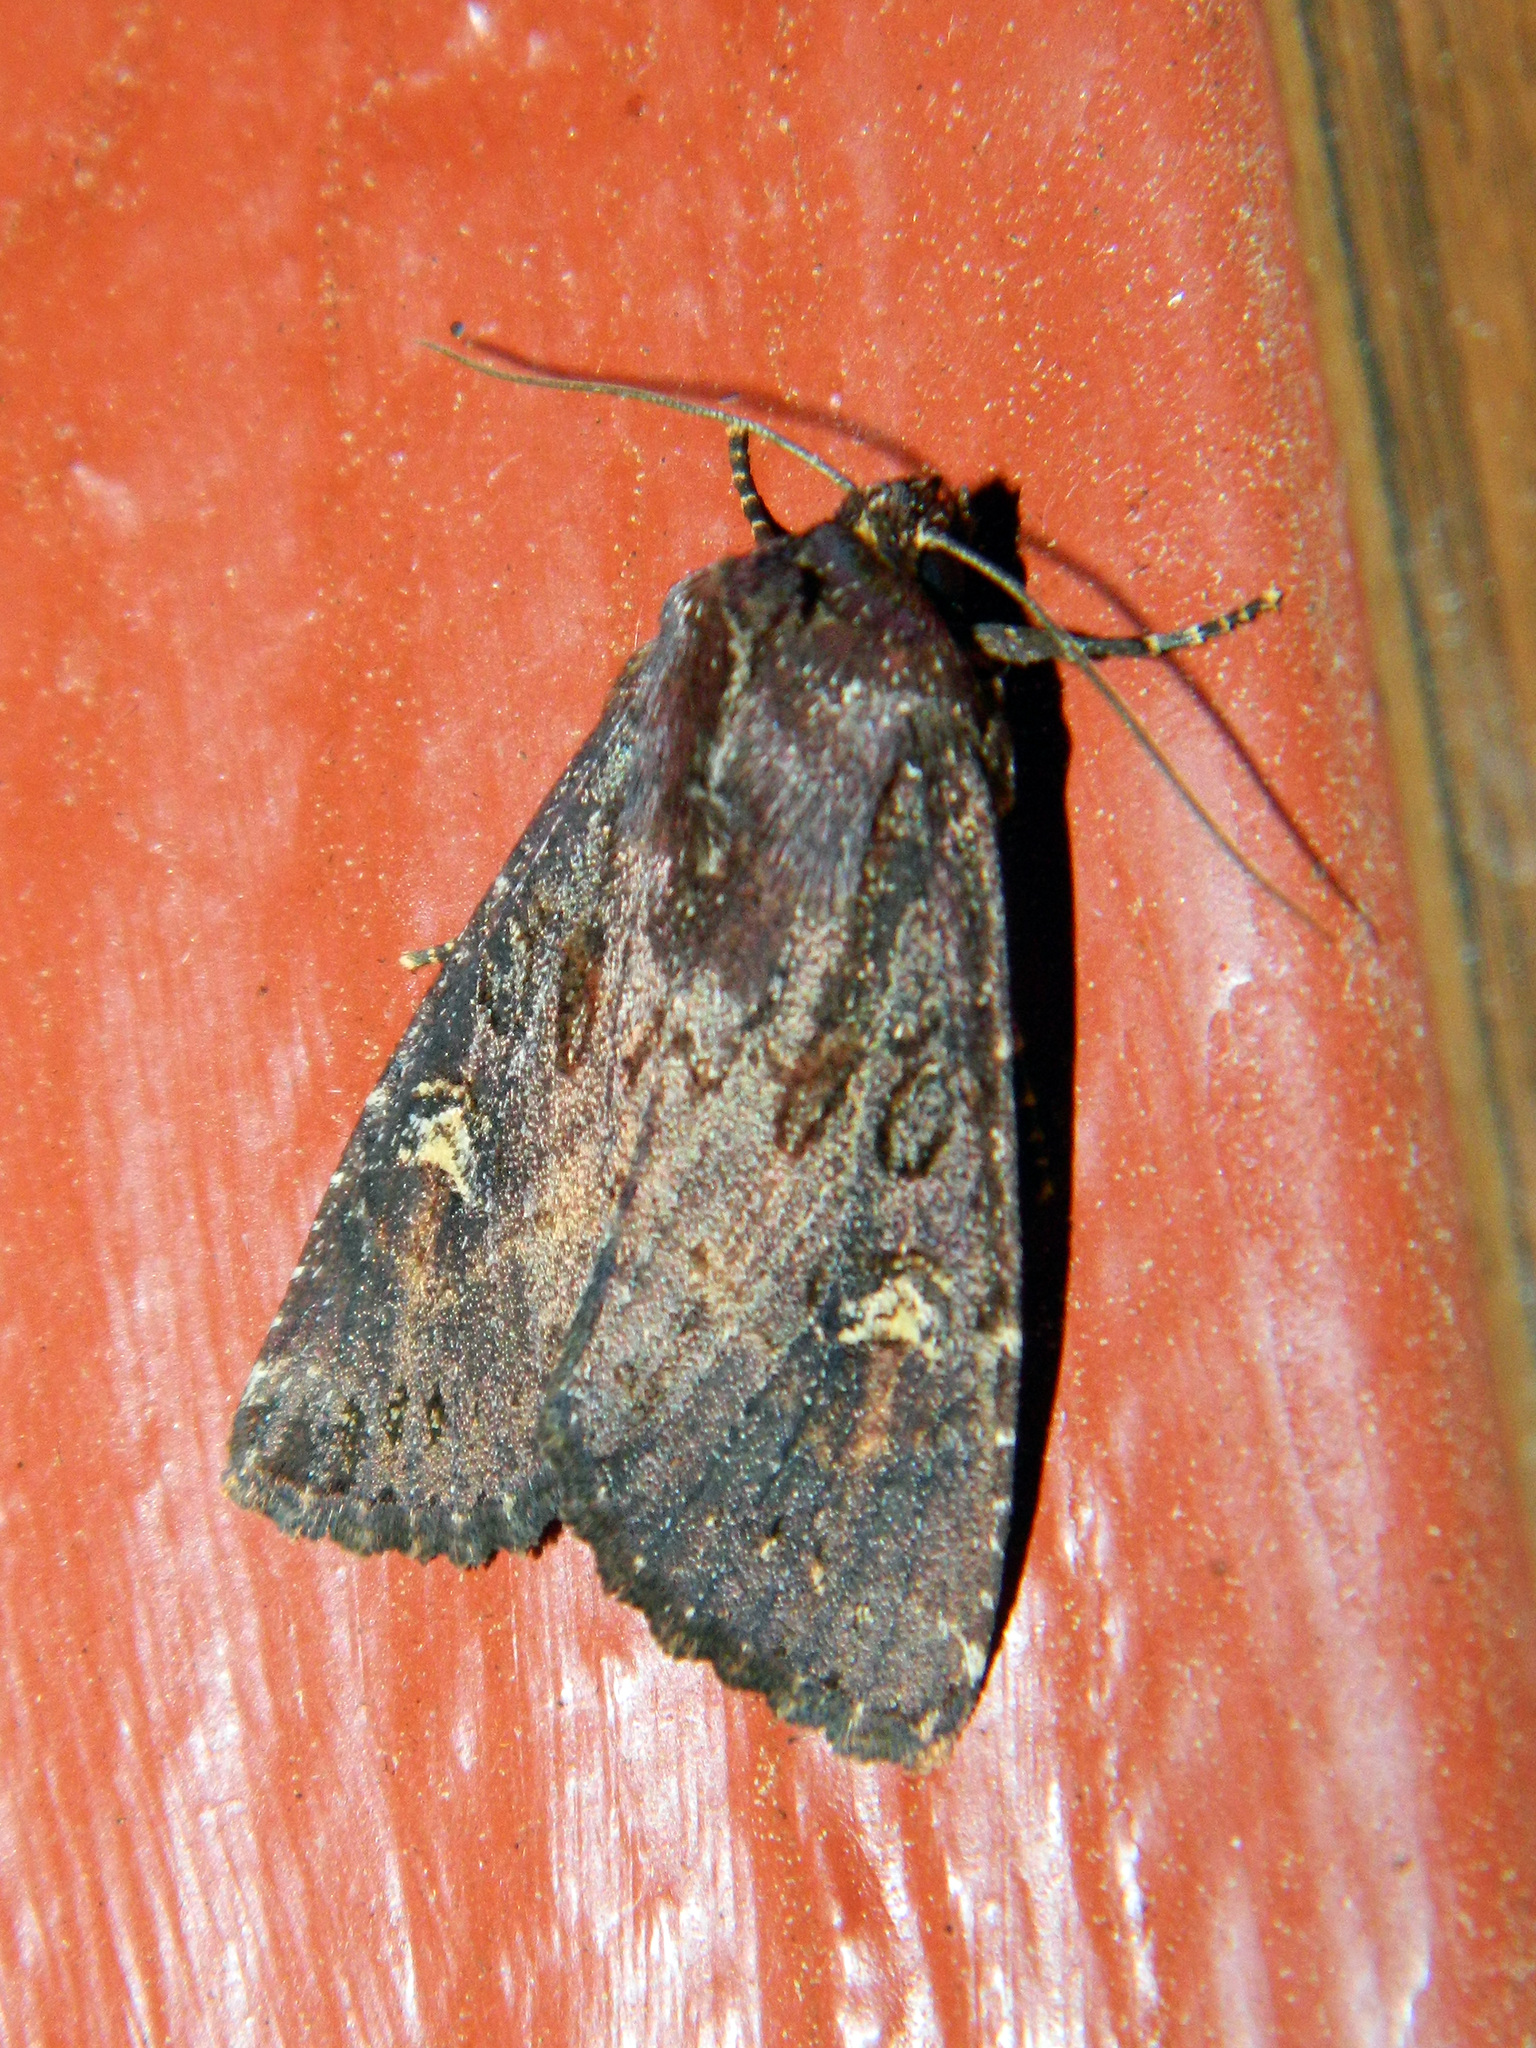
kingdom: Animalia
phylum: Arthropoda
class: Insecta
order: Lepidoptera
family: Noctuidae
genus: Apamea
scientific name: Apamea dubitans
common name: Doubtful apamea moth
